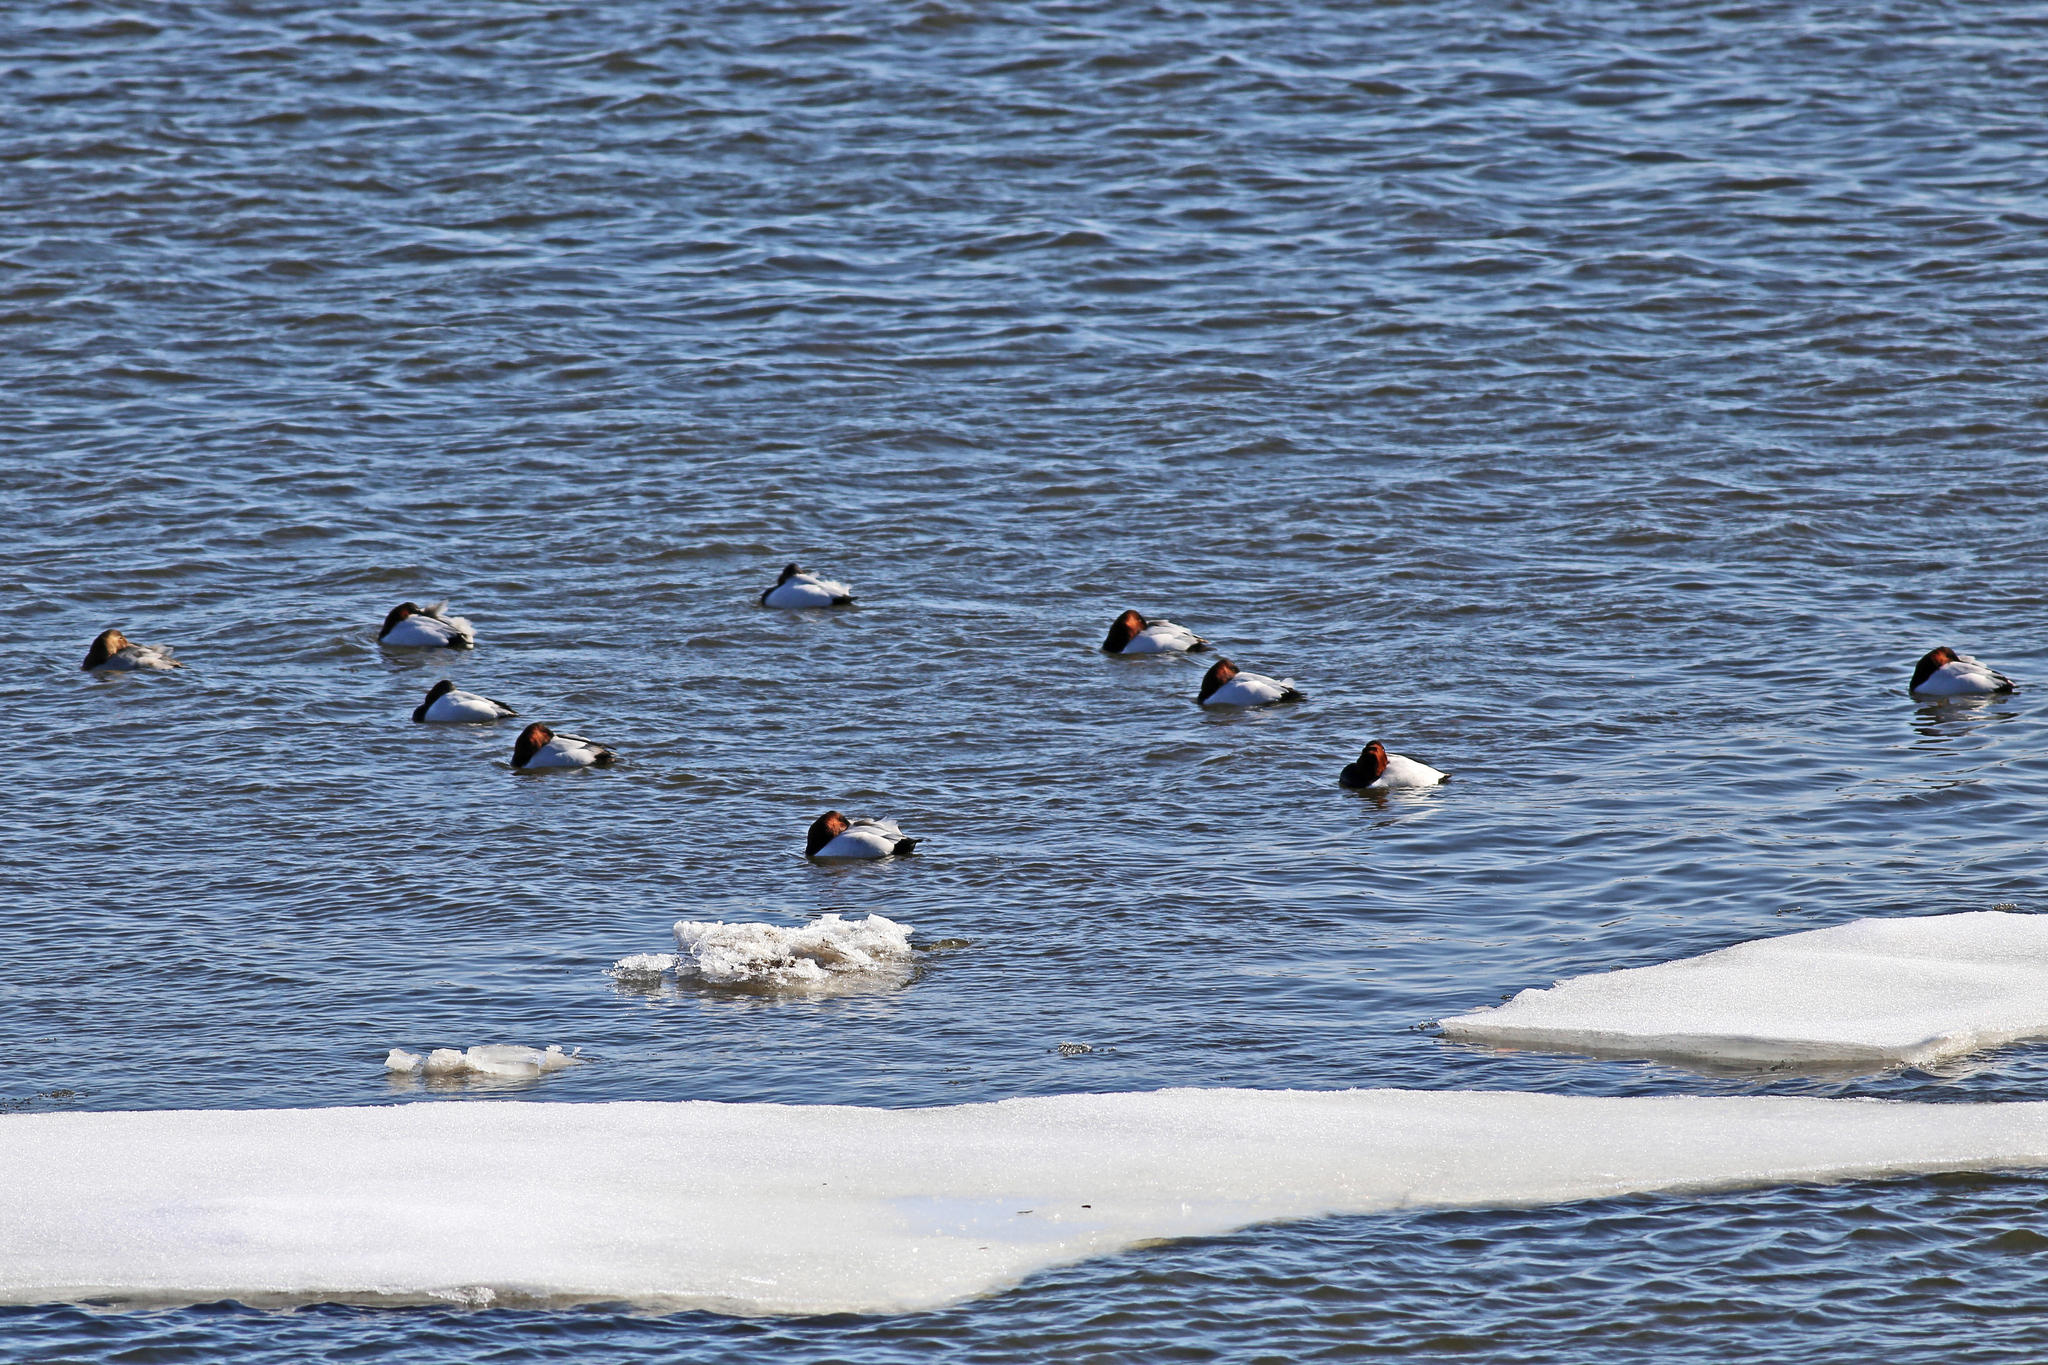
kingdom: Animalia
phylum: Chordata
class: Aves
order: Anseriformes
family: Anatidae
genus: Aythya
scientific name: Aythya valisineria
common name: Canvasback
